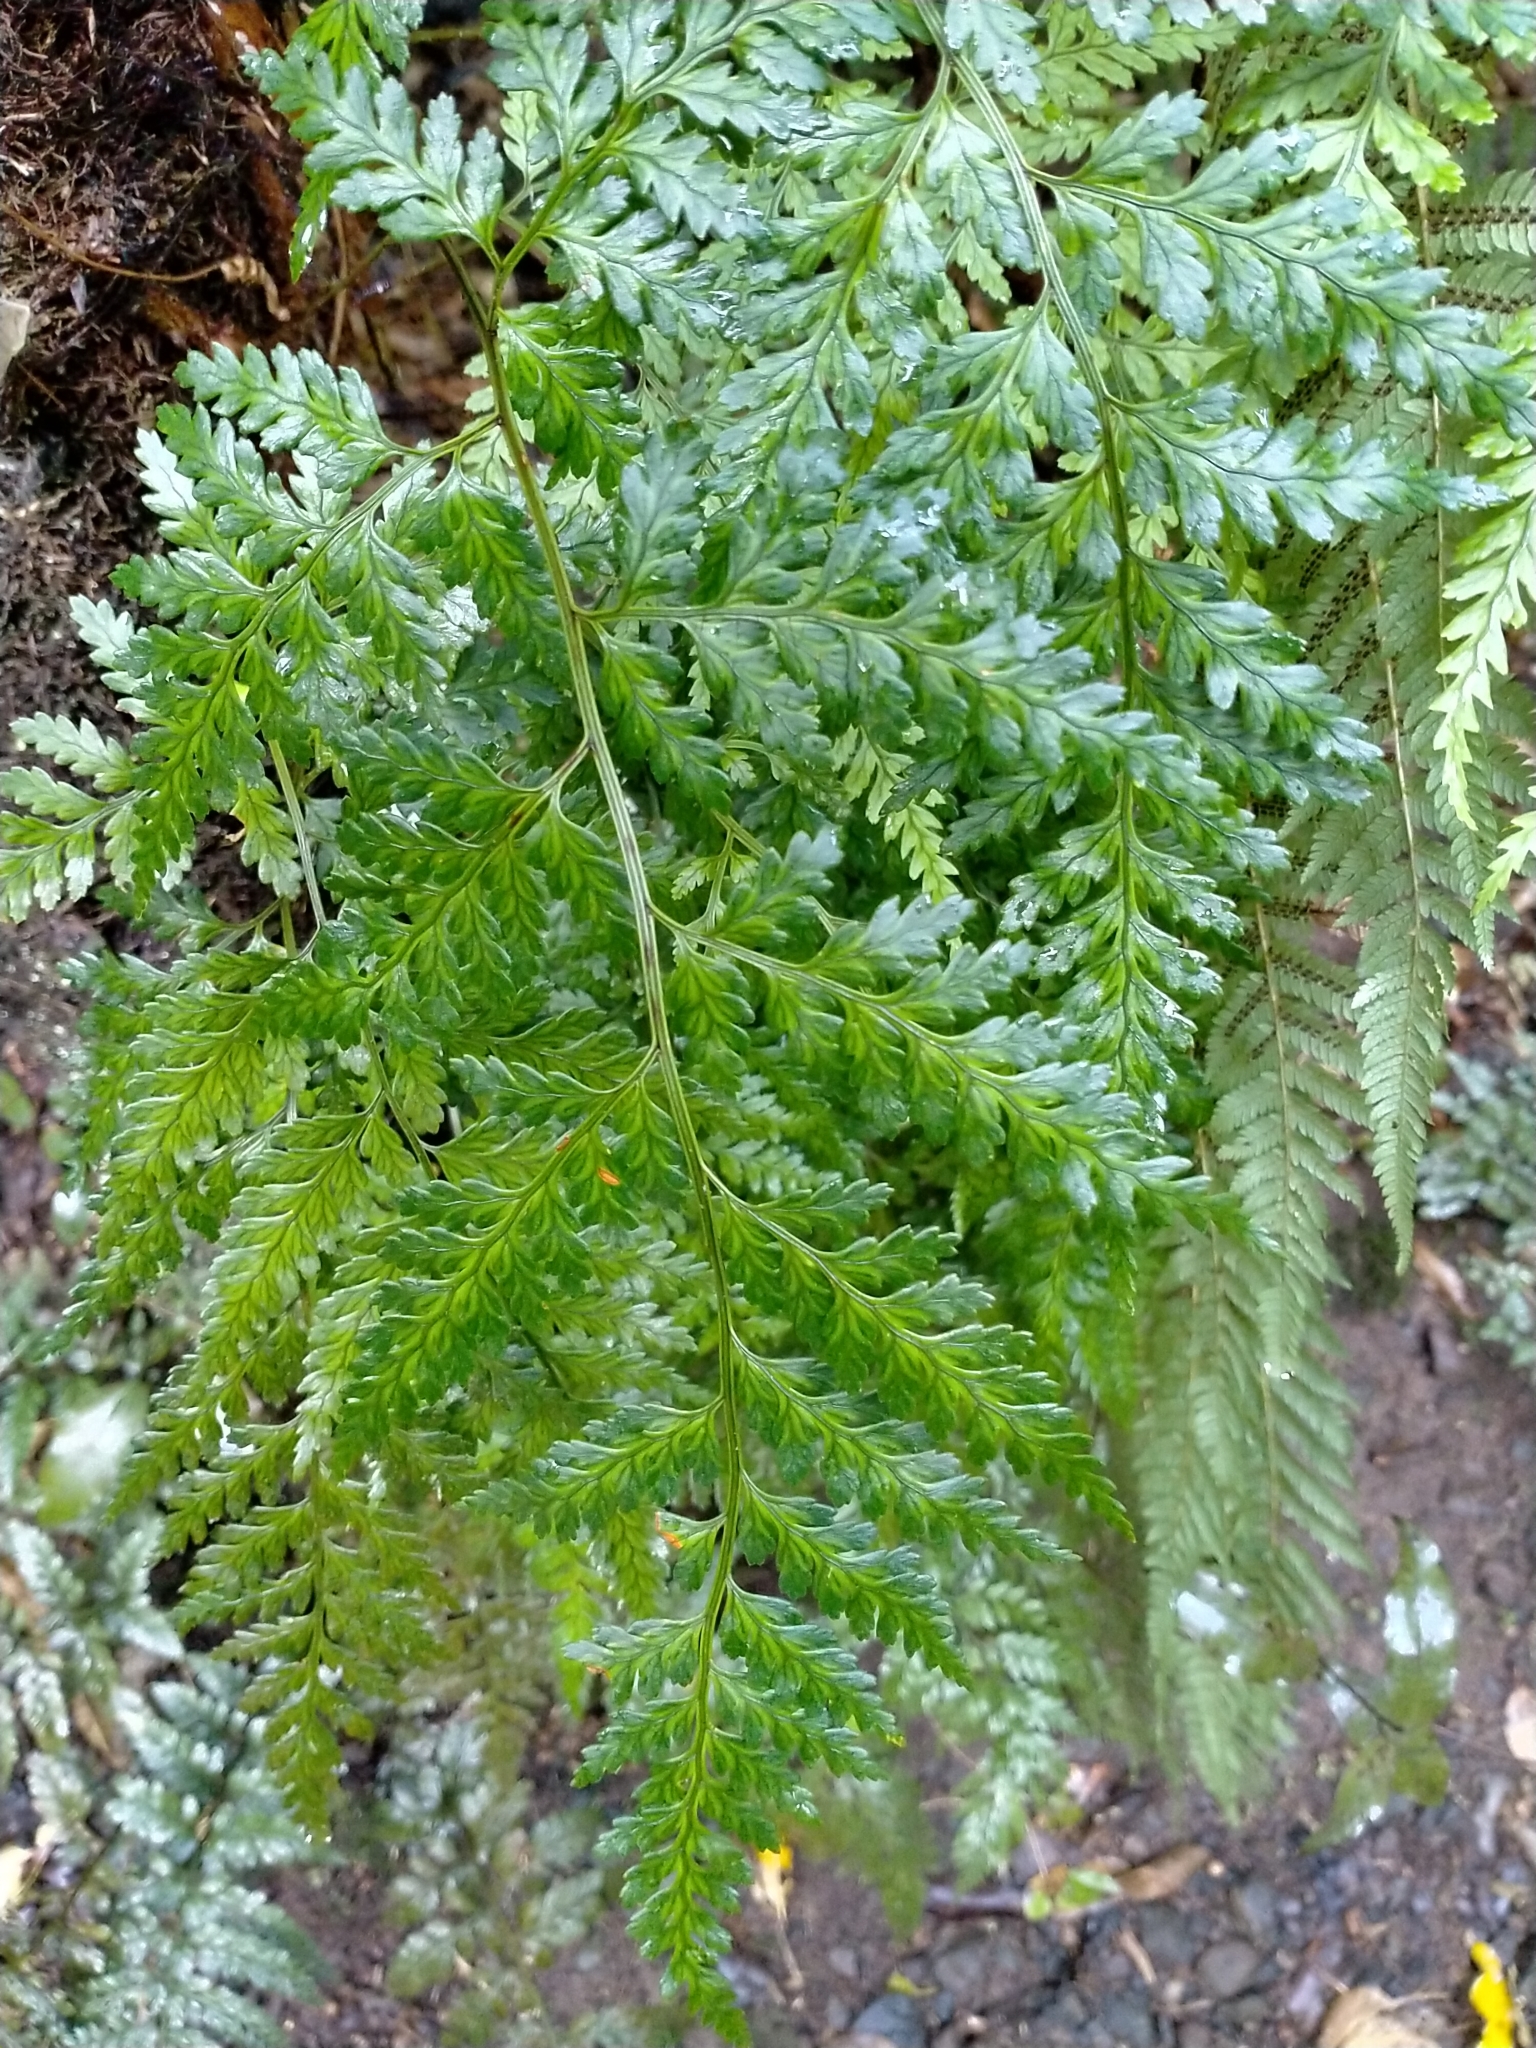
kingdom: Plantae
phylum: Tracheophyta
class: Polypodiopsida
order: Polypodiales
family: Dryopteridaceae
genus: Rumohra
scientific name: Rumohra adiantiformis
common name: Leather fern
